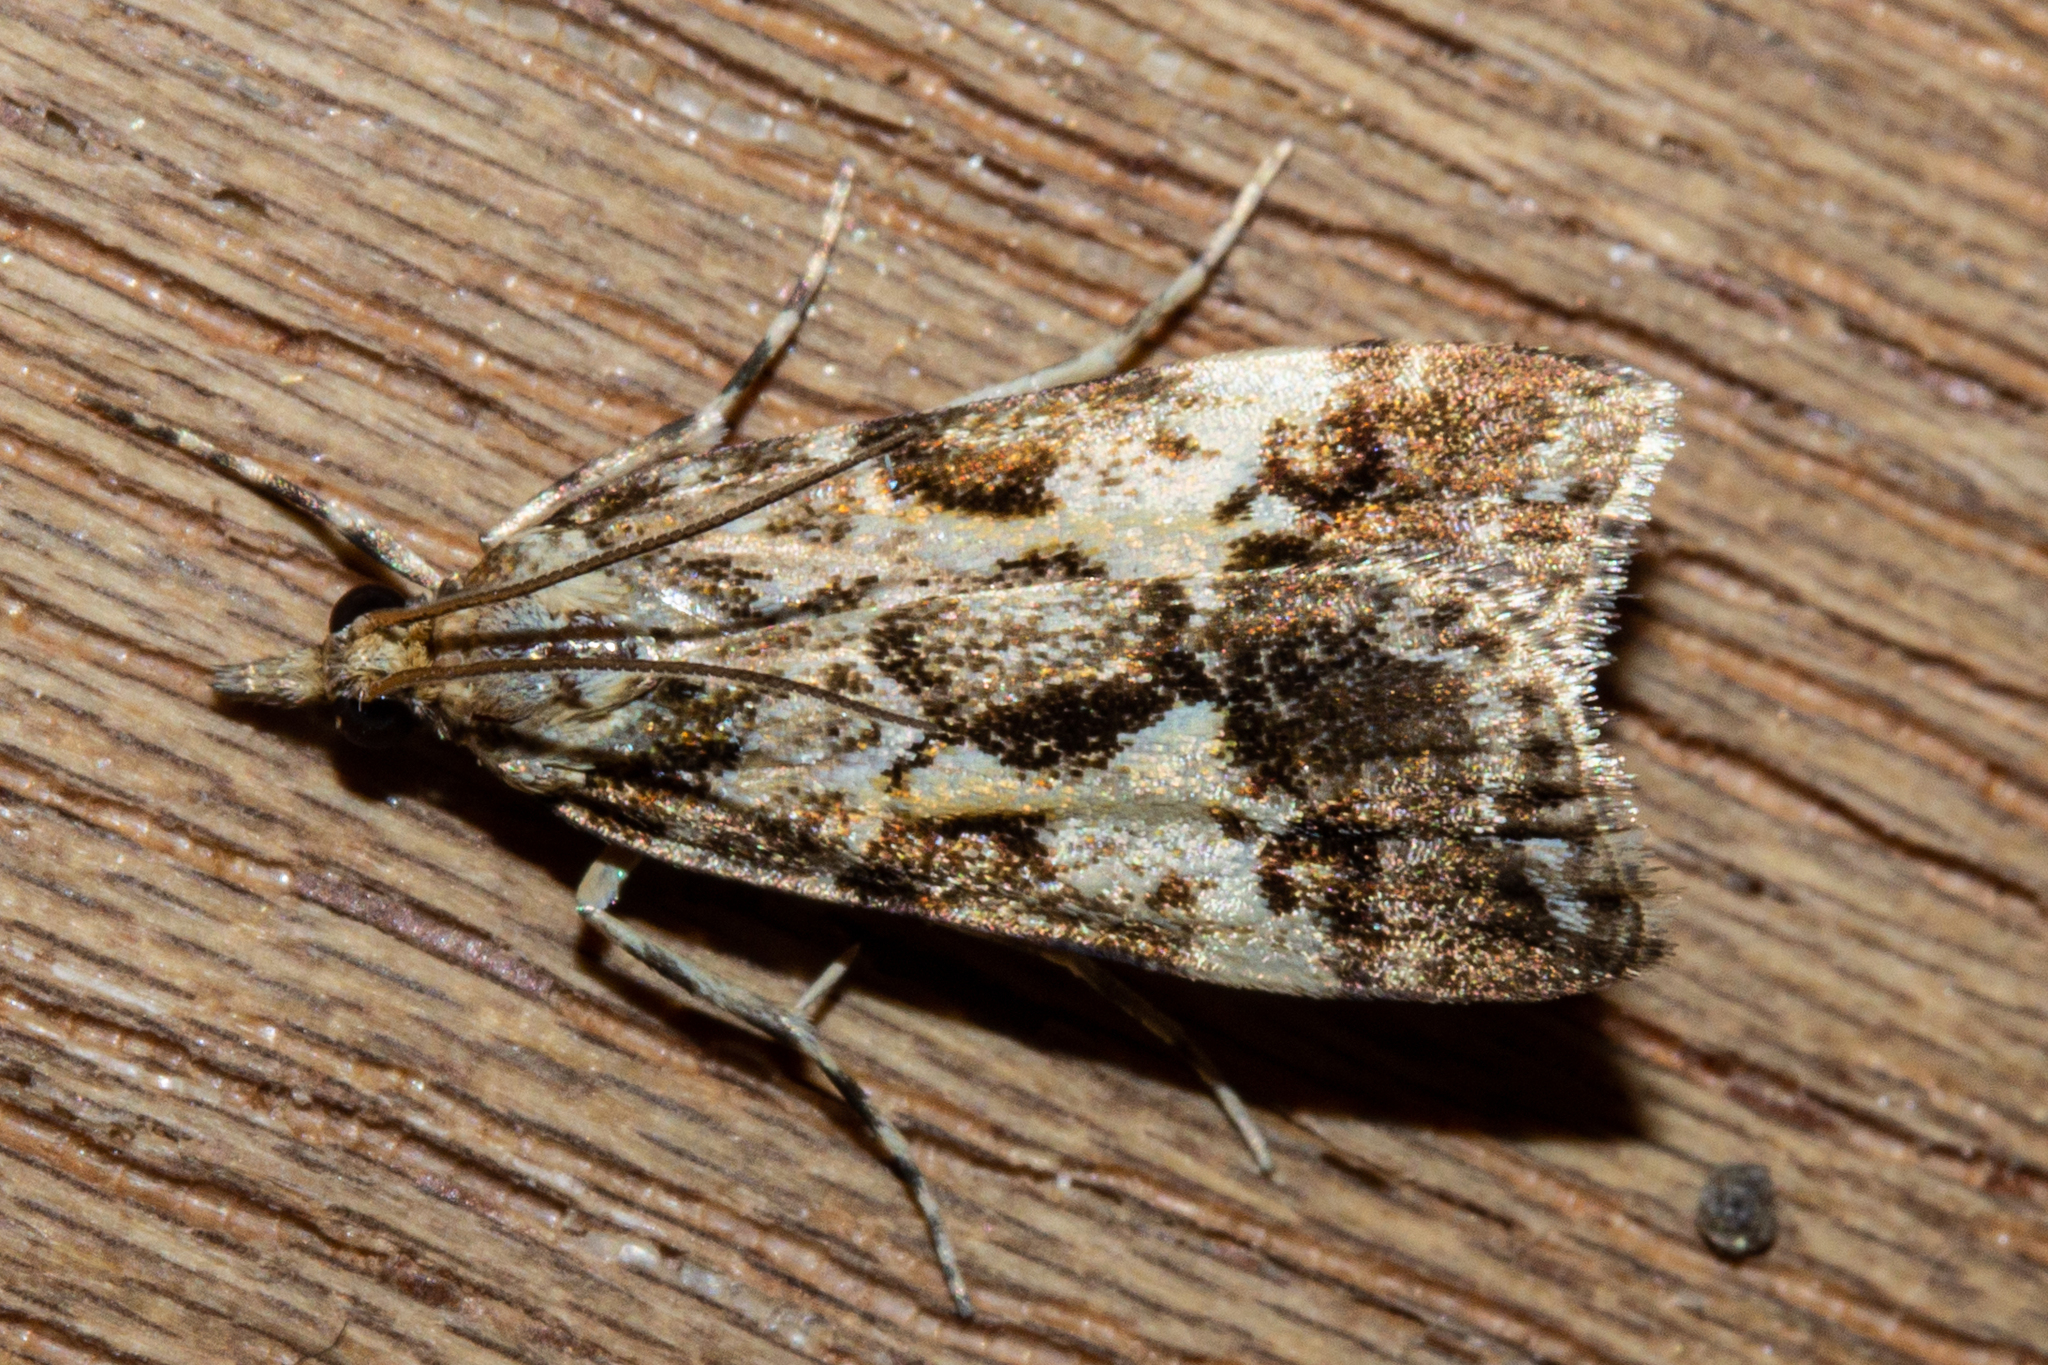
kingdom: Animalia
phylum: Arthropoda
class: Insecta
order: Lepidoptera
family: Crambidae
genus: Eudonia
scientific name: Eudonia characta
